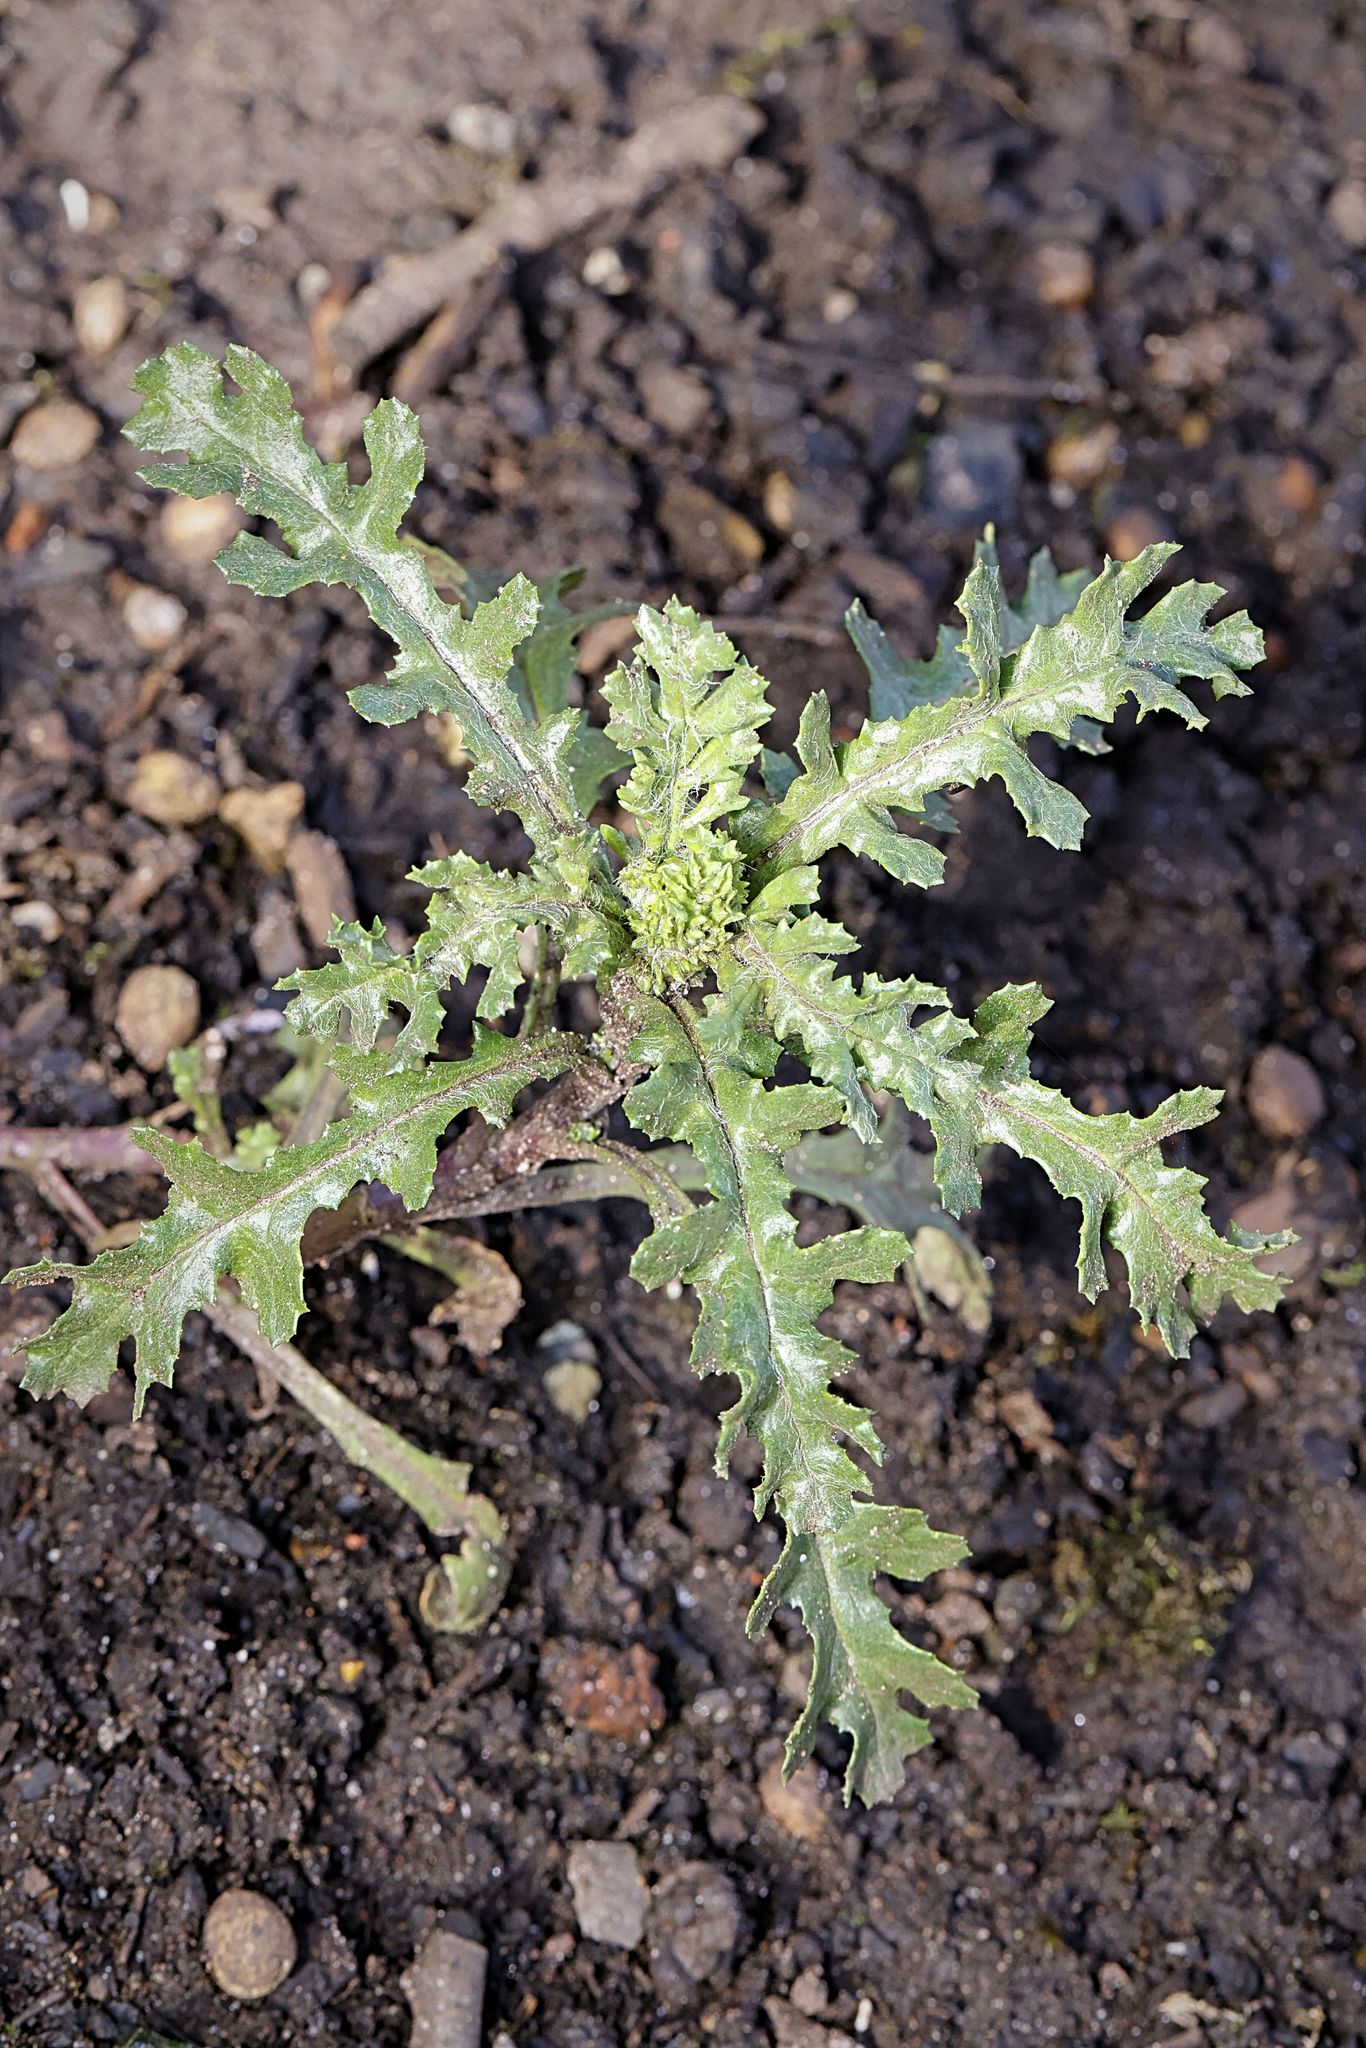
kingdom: Plantae
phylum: Tracheophyta
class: Magnoliopsida
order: Asterales
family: Asteraceae
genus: Senecio
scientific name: Senecio vulgaris
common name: Old-man-in-the-spring
